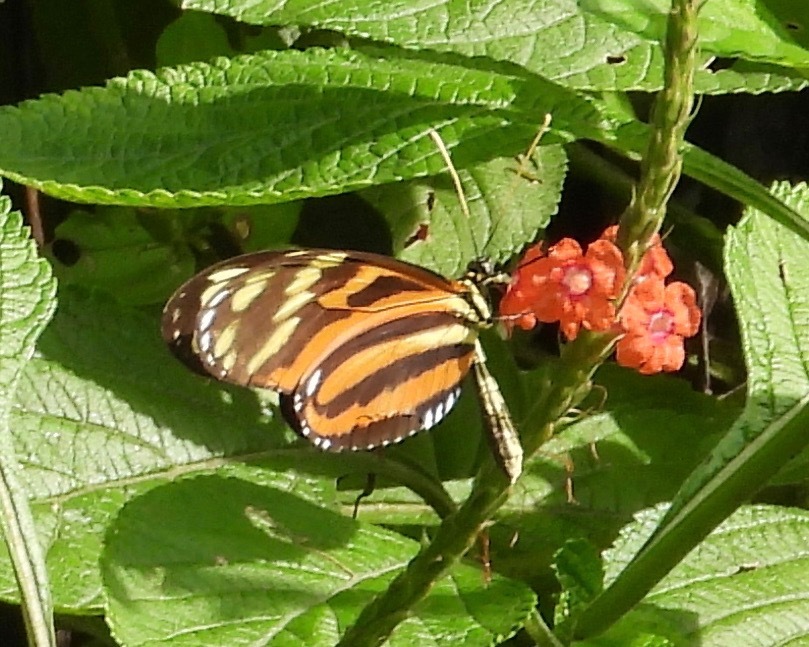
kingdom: Animalia
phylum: Arthropoda
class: Insecta
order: Lepidoptera
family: Nymphalidae
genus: Heliconius
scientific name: Heliconius ismenius
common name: Ismenius tiger
